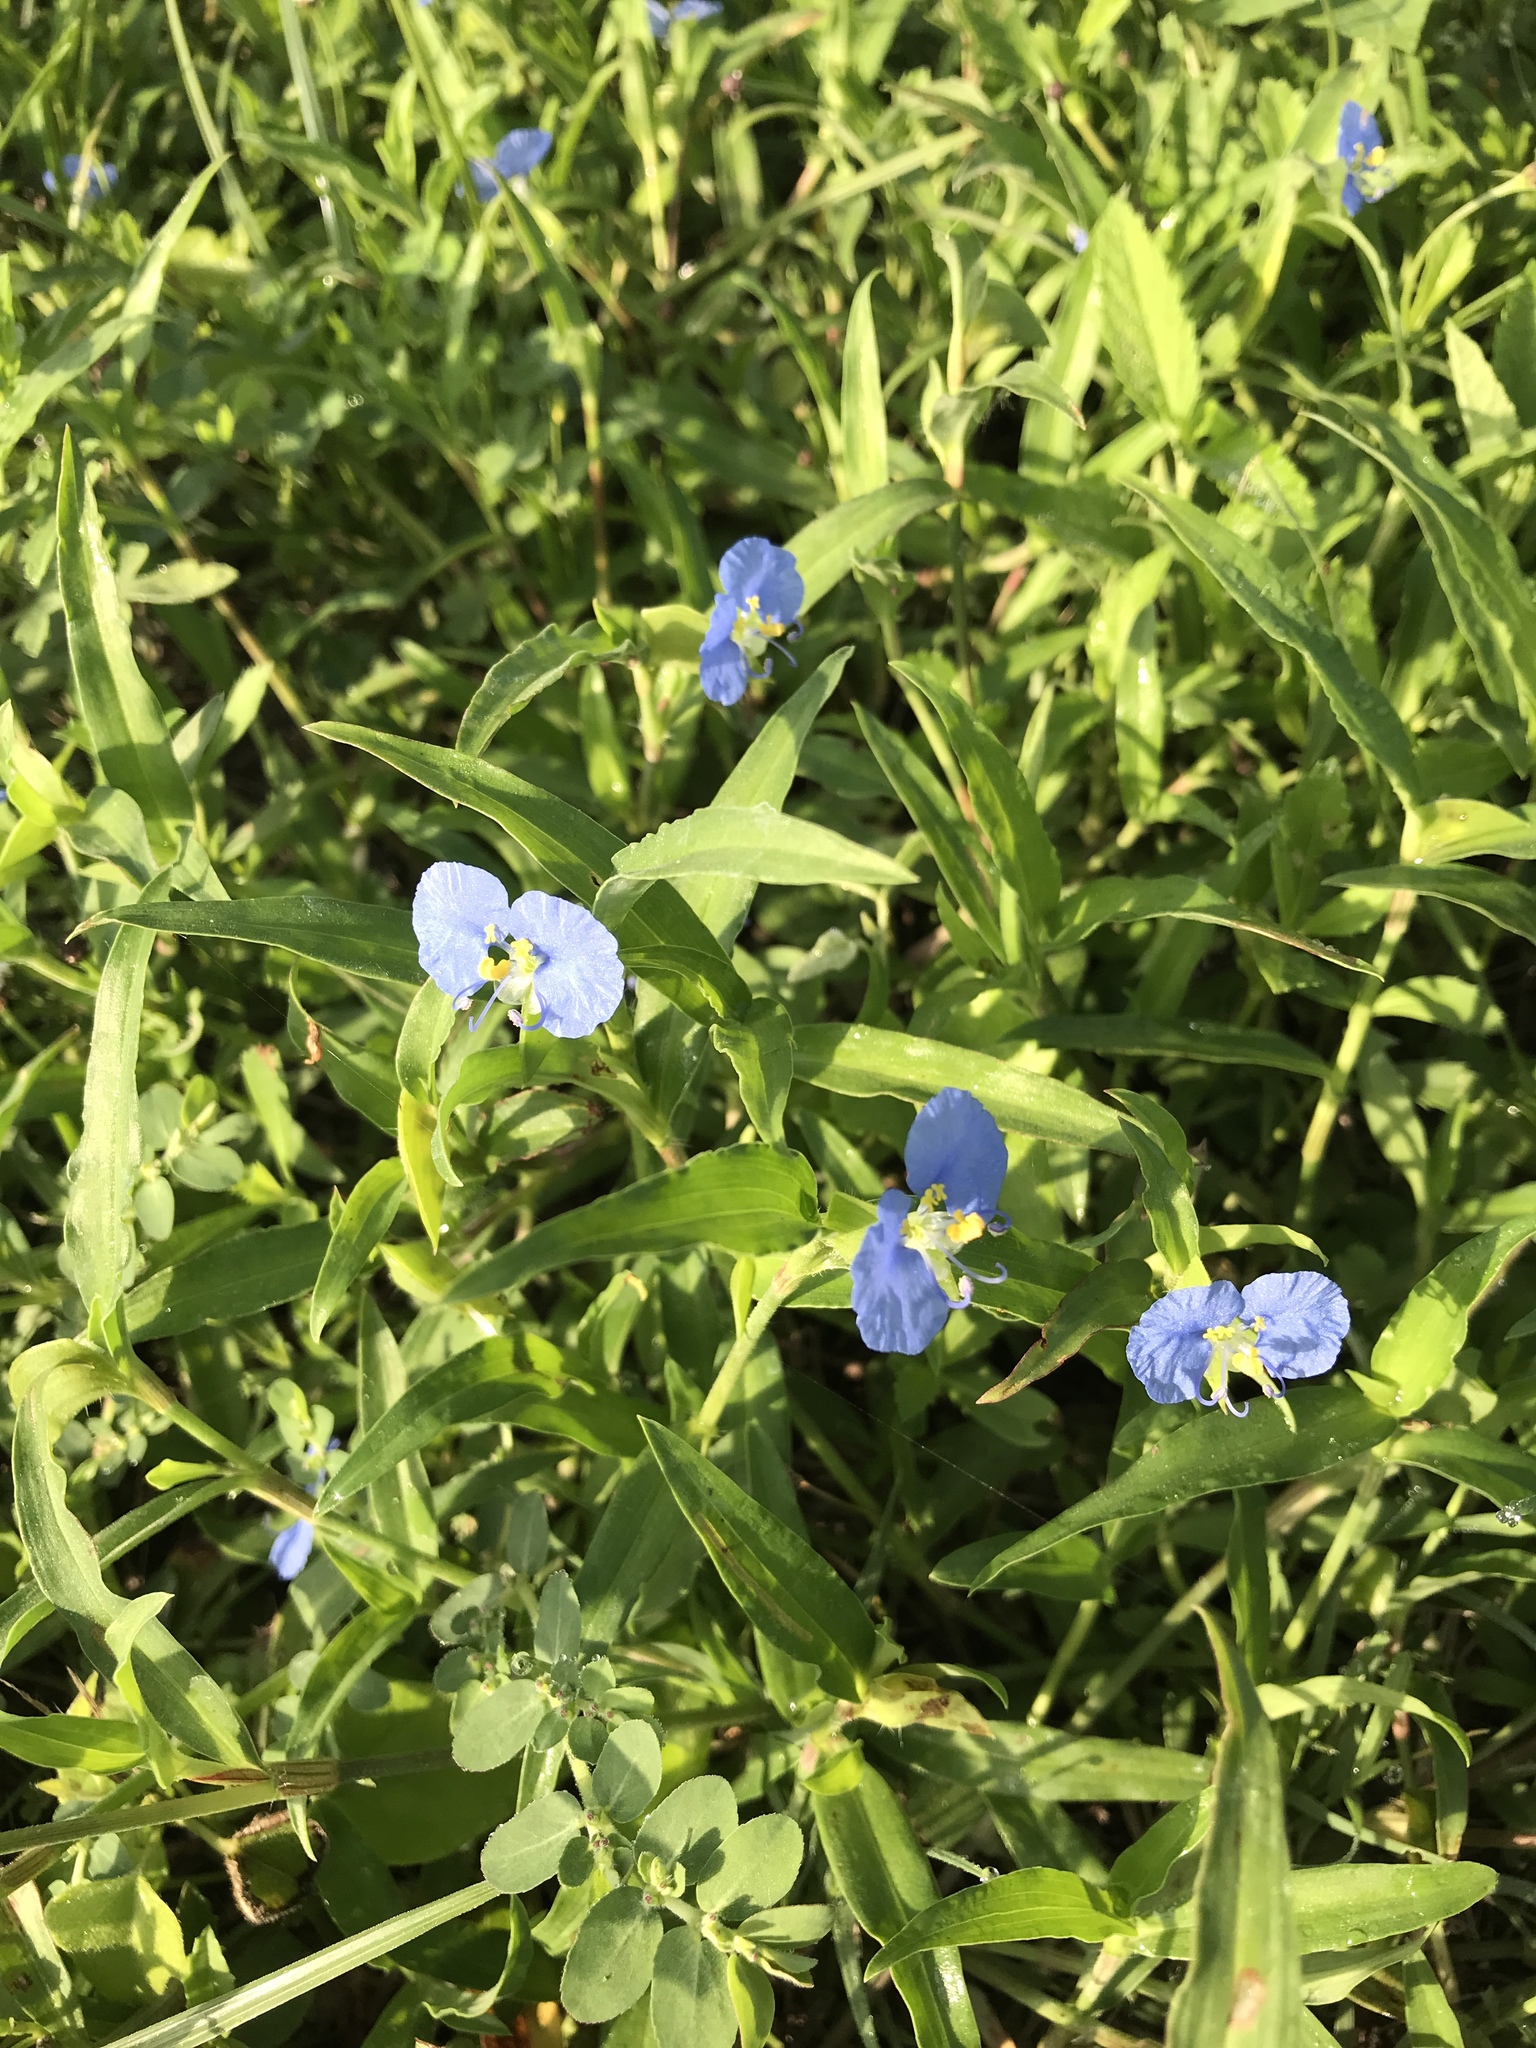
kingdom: Plantae
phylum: Tracheophyta
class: Liliopsida
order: Commelinales
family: Commelinaceae
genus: Commelina
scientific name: Commelina erecta
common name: Blousel blommetjie
